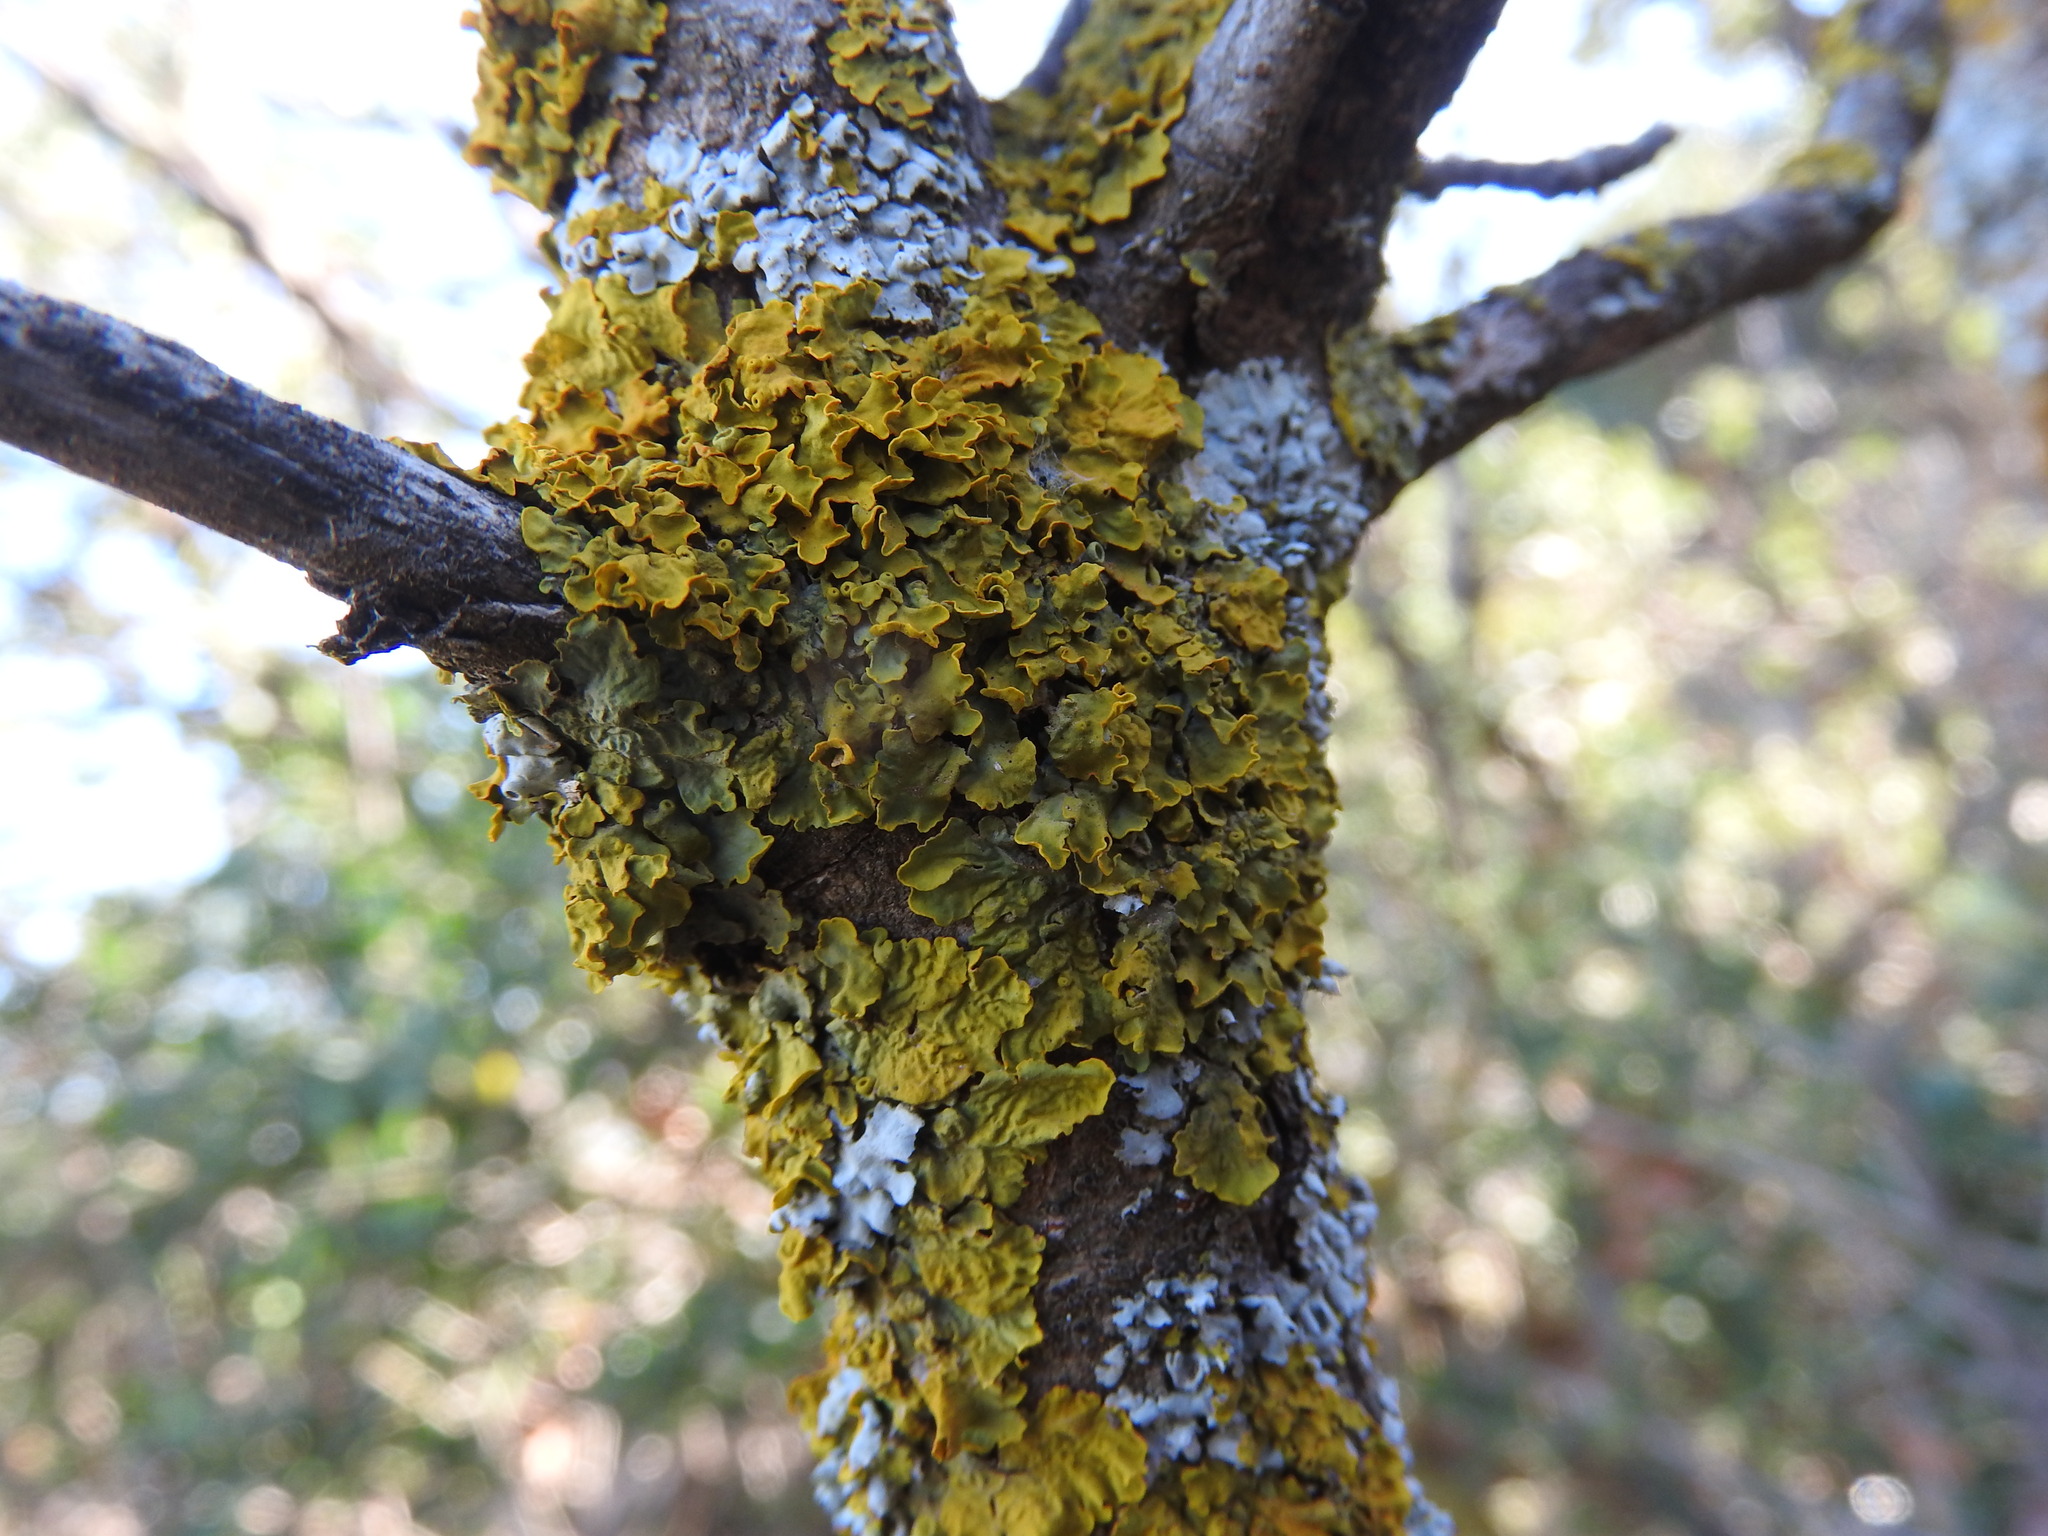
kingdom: Fungi
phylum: Ascomycota
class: Lecanoromycetes
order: Teloschistales
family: Teloschistaceae
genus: Xanthoria
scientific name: Xanthoria parietina
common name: Common orange lichen
